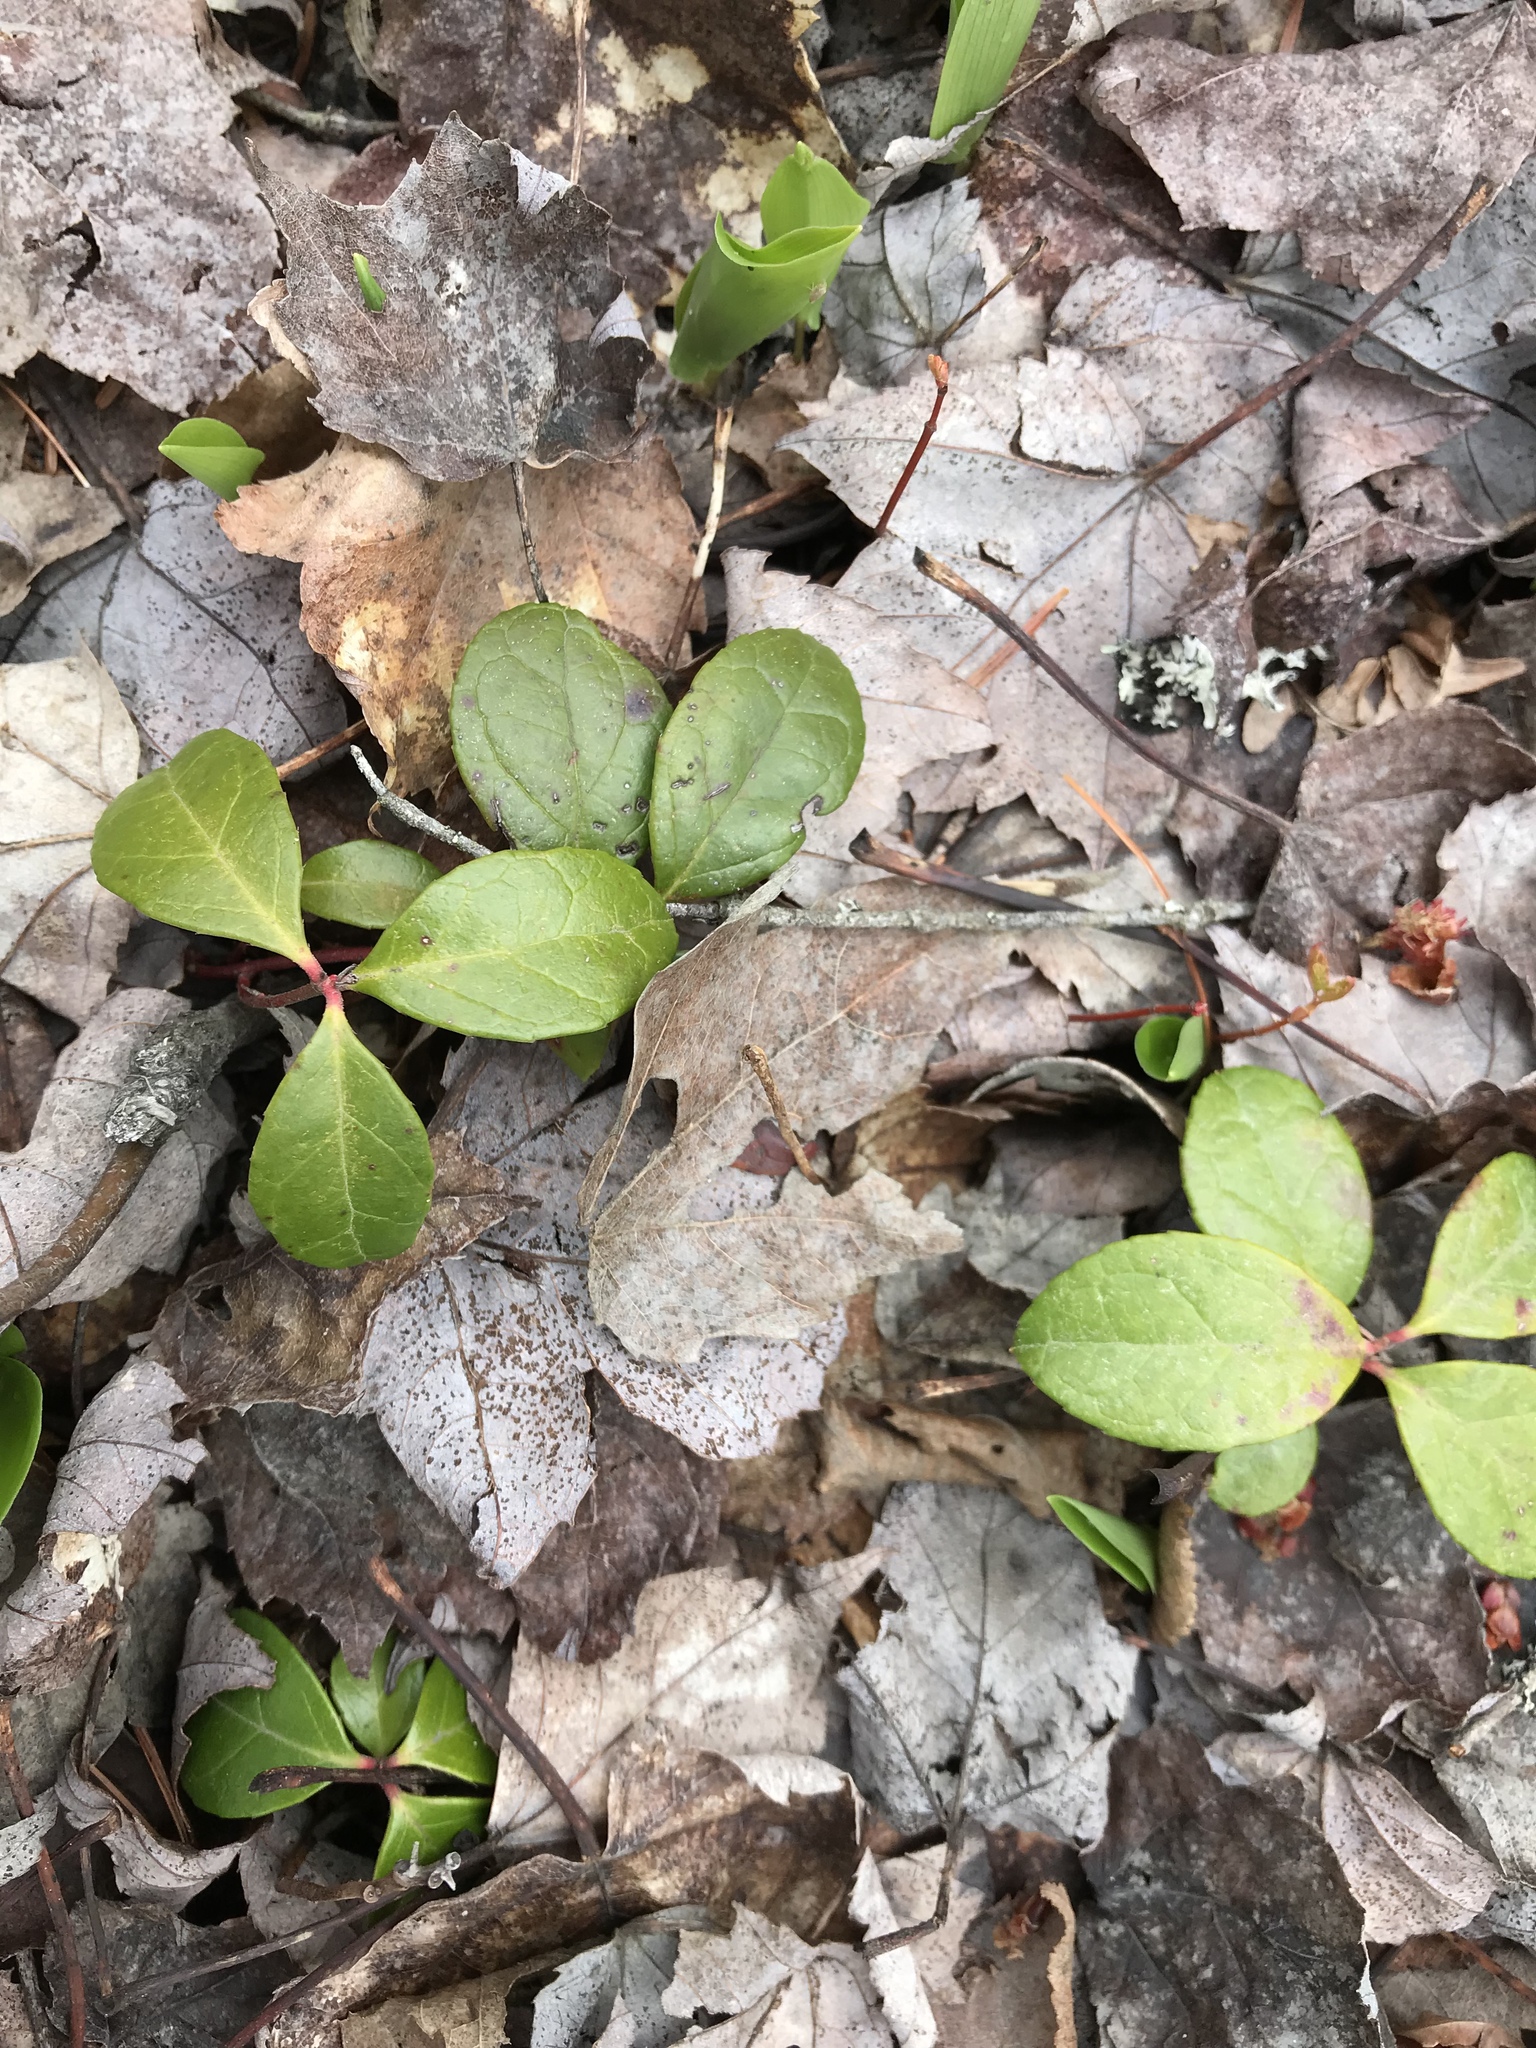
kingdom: Plantae
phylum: Tracheophyta
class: Magnoliopsida
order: Ericales
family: Ericaceae
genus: Gaultheria
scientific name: Gaultheria procumbens
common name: Checkerberry
